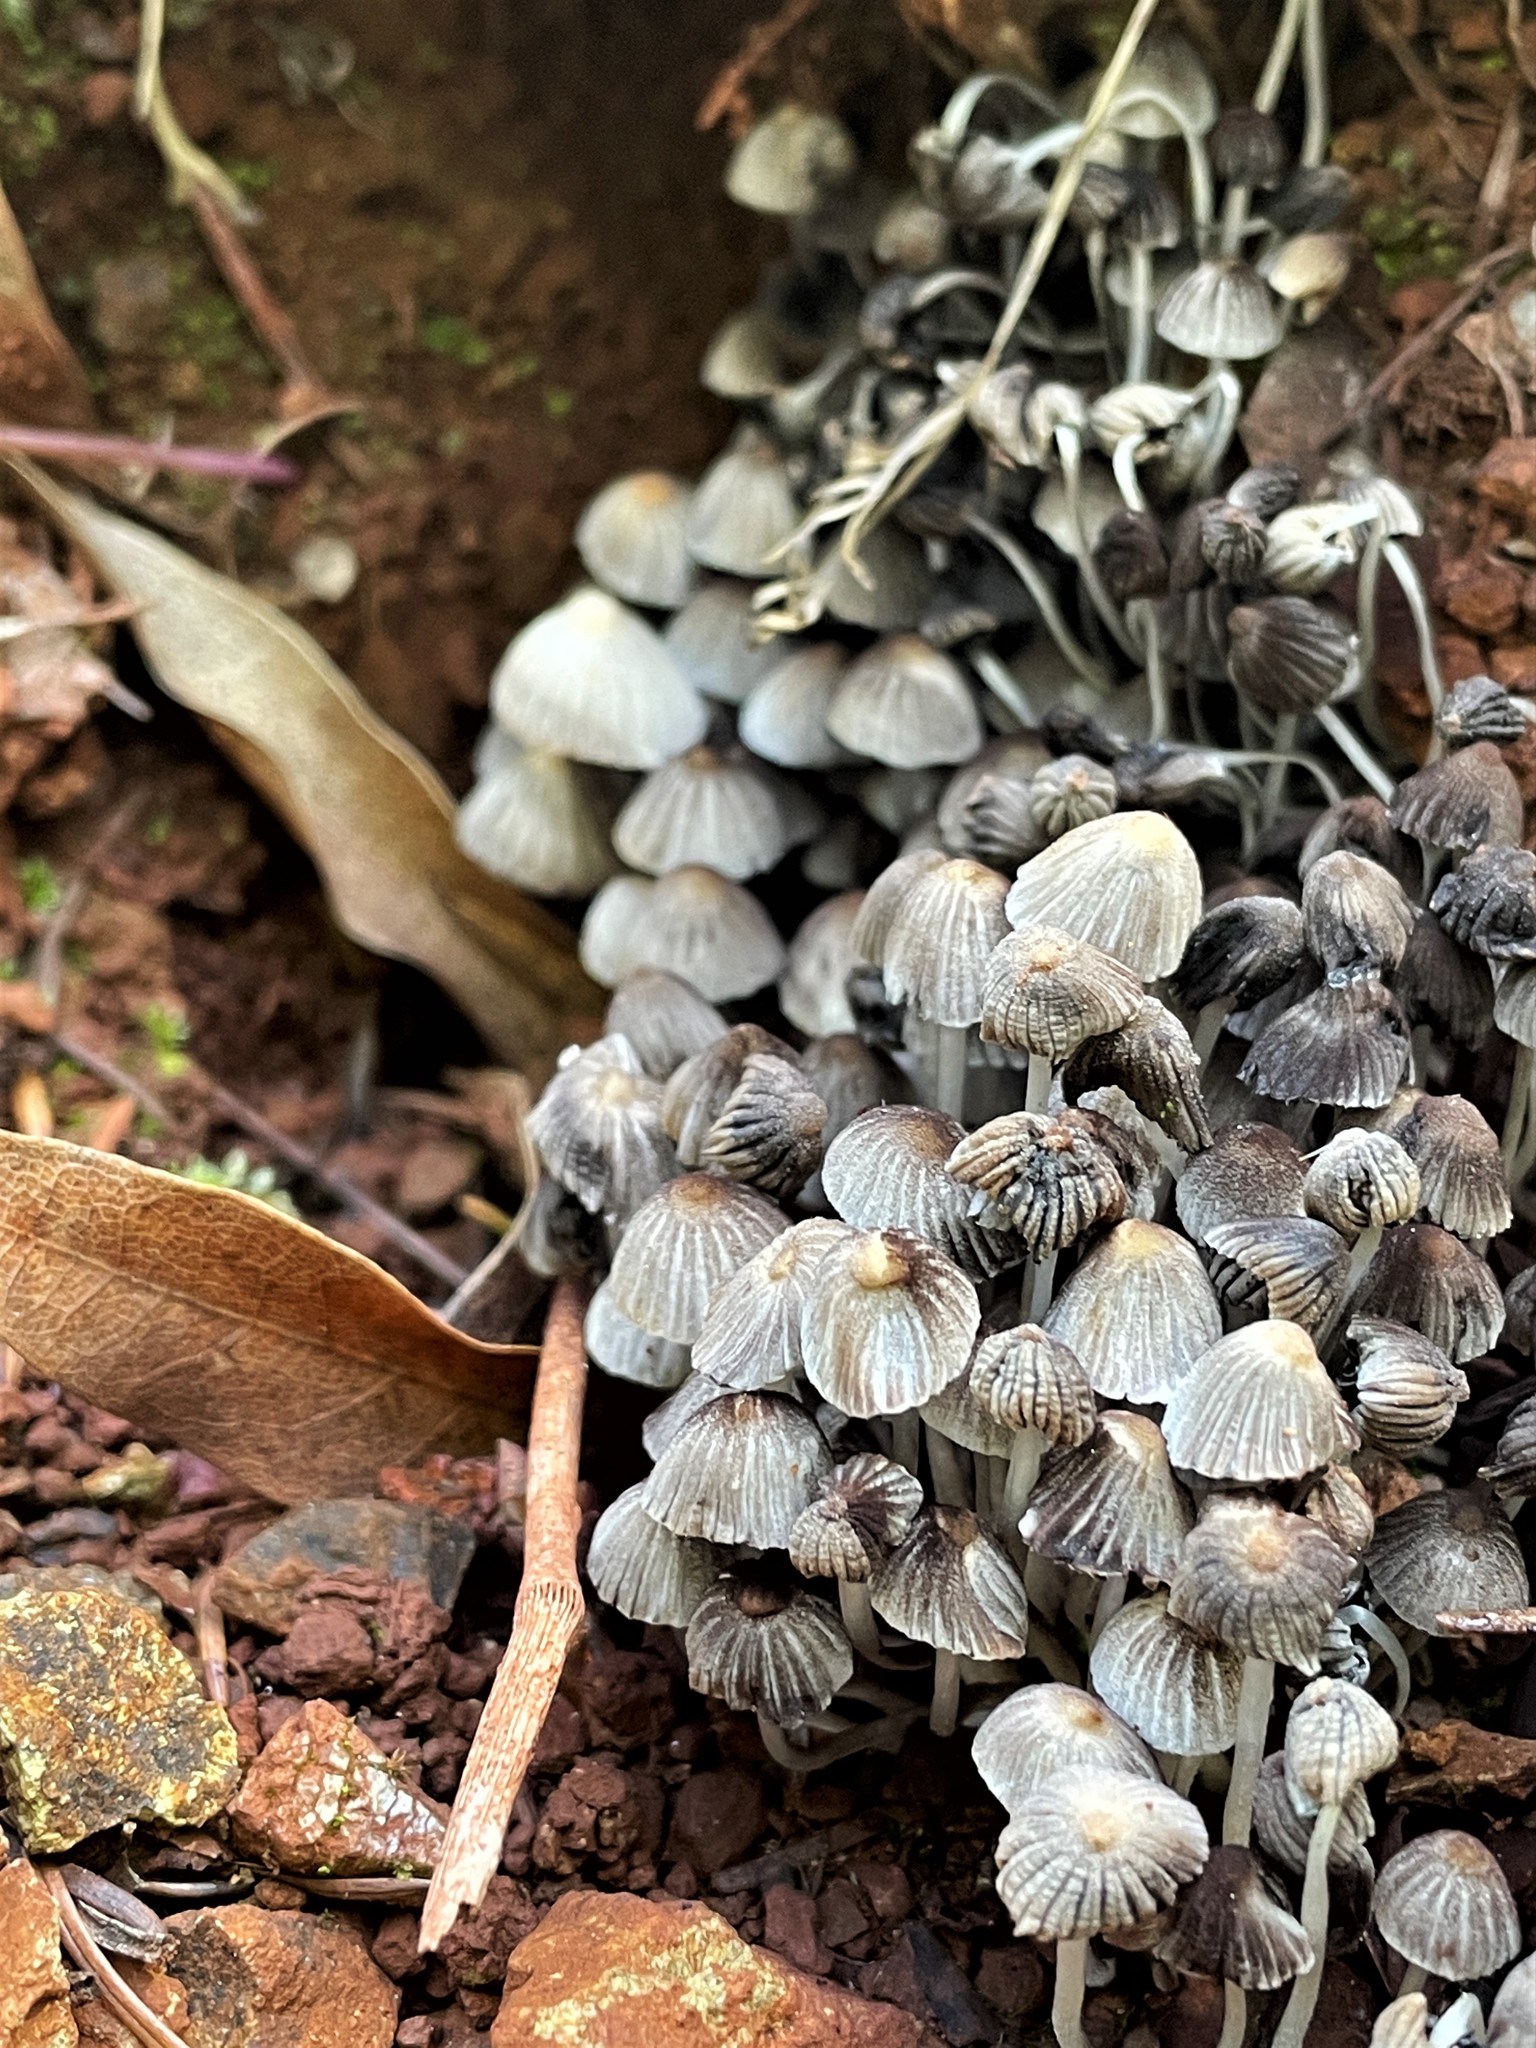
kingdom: Fungi
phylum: Basidiomycota
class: Agaricomycetes
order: Agaricales
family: Psathyrellaceae
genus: Coprinellus
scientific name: Coprinellus disseminatus
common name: Fairies' bonnets
